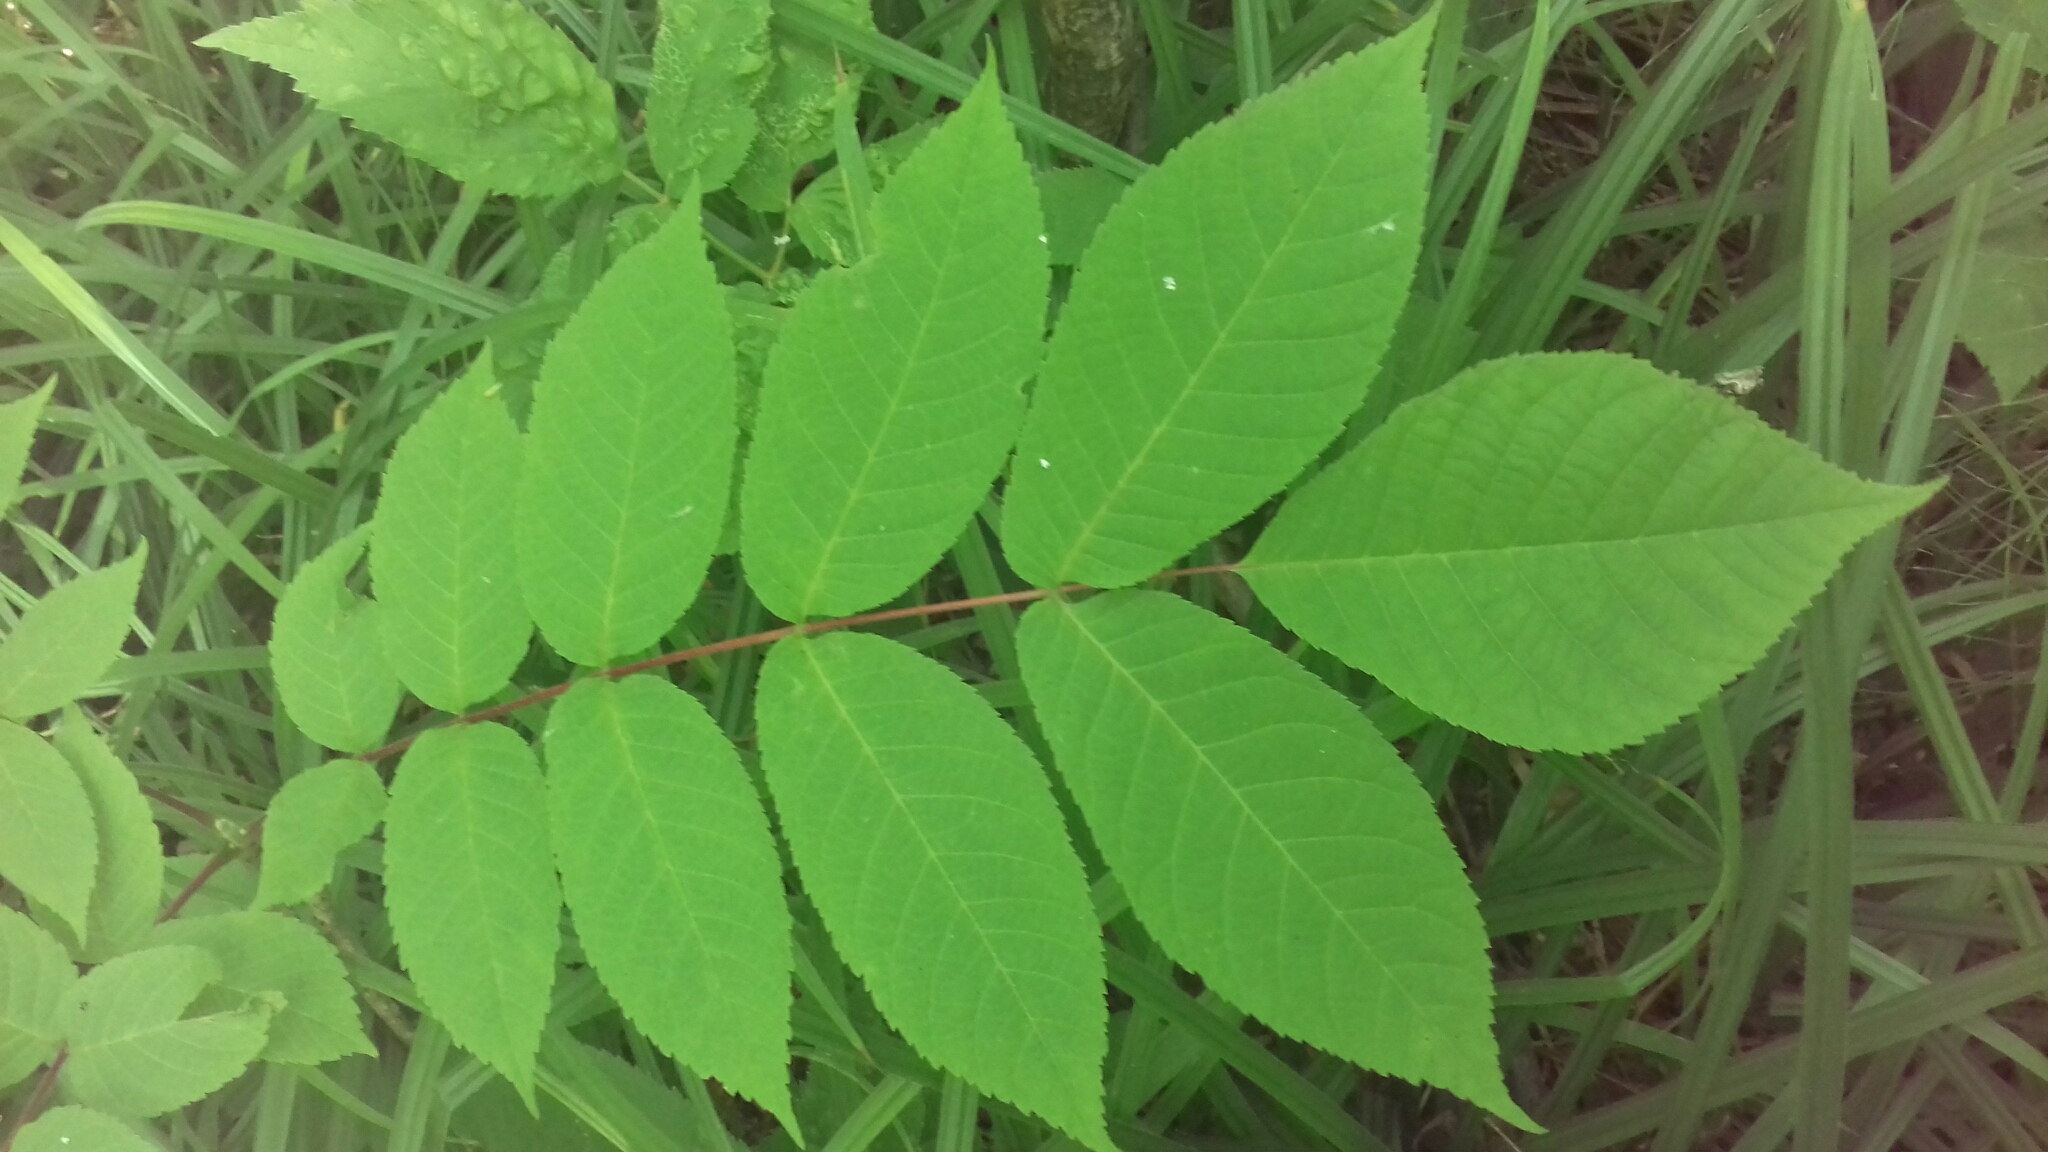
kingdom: Plantae
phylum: Tracheophyta
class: Magnoliopsida
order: Sapindales
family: Rutaceae
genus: Phellodendron
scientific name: Phellodendron amurense
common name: Amur corktree
